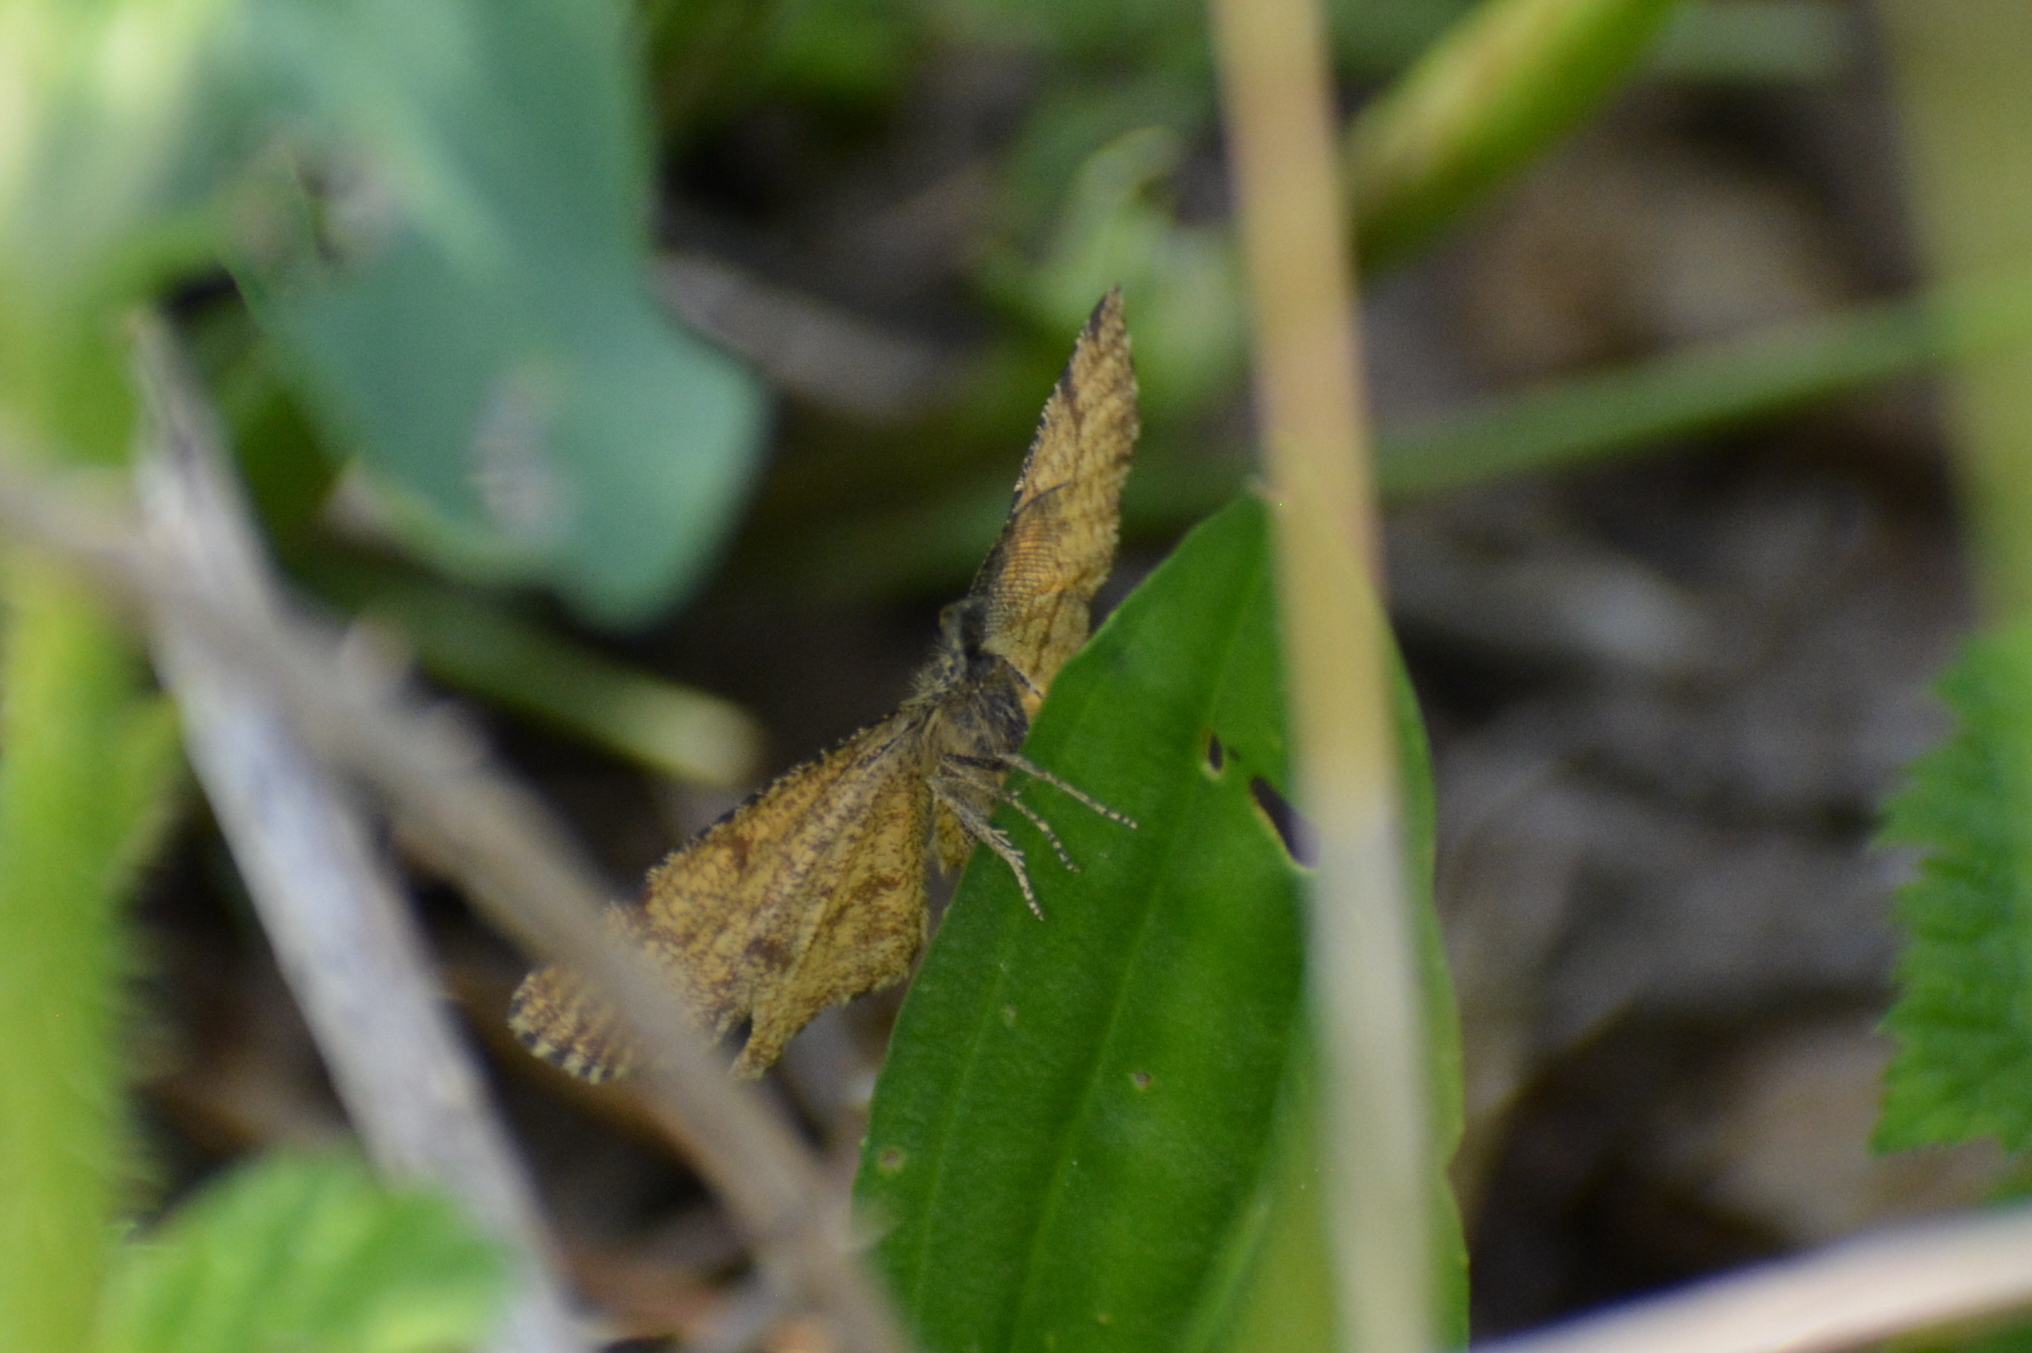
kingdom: Animalia
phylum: Arthropoda
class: Insecta
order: Lepidoptera
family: Geometridae
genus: Ematurga
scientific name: Ematurga atomaria
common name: Common heath
